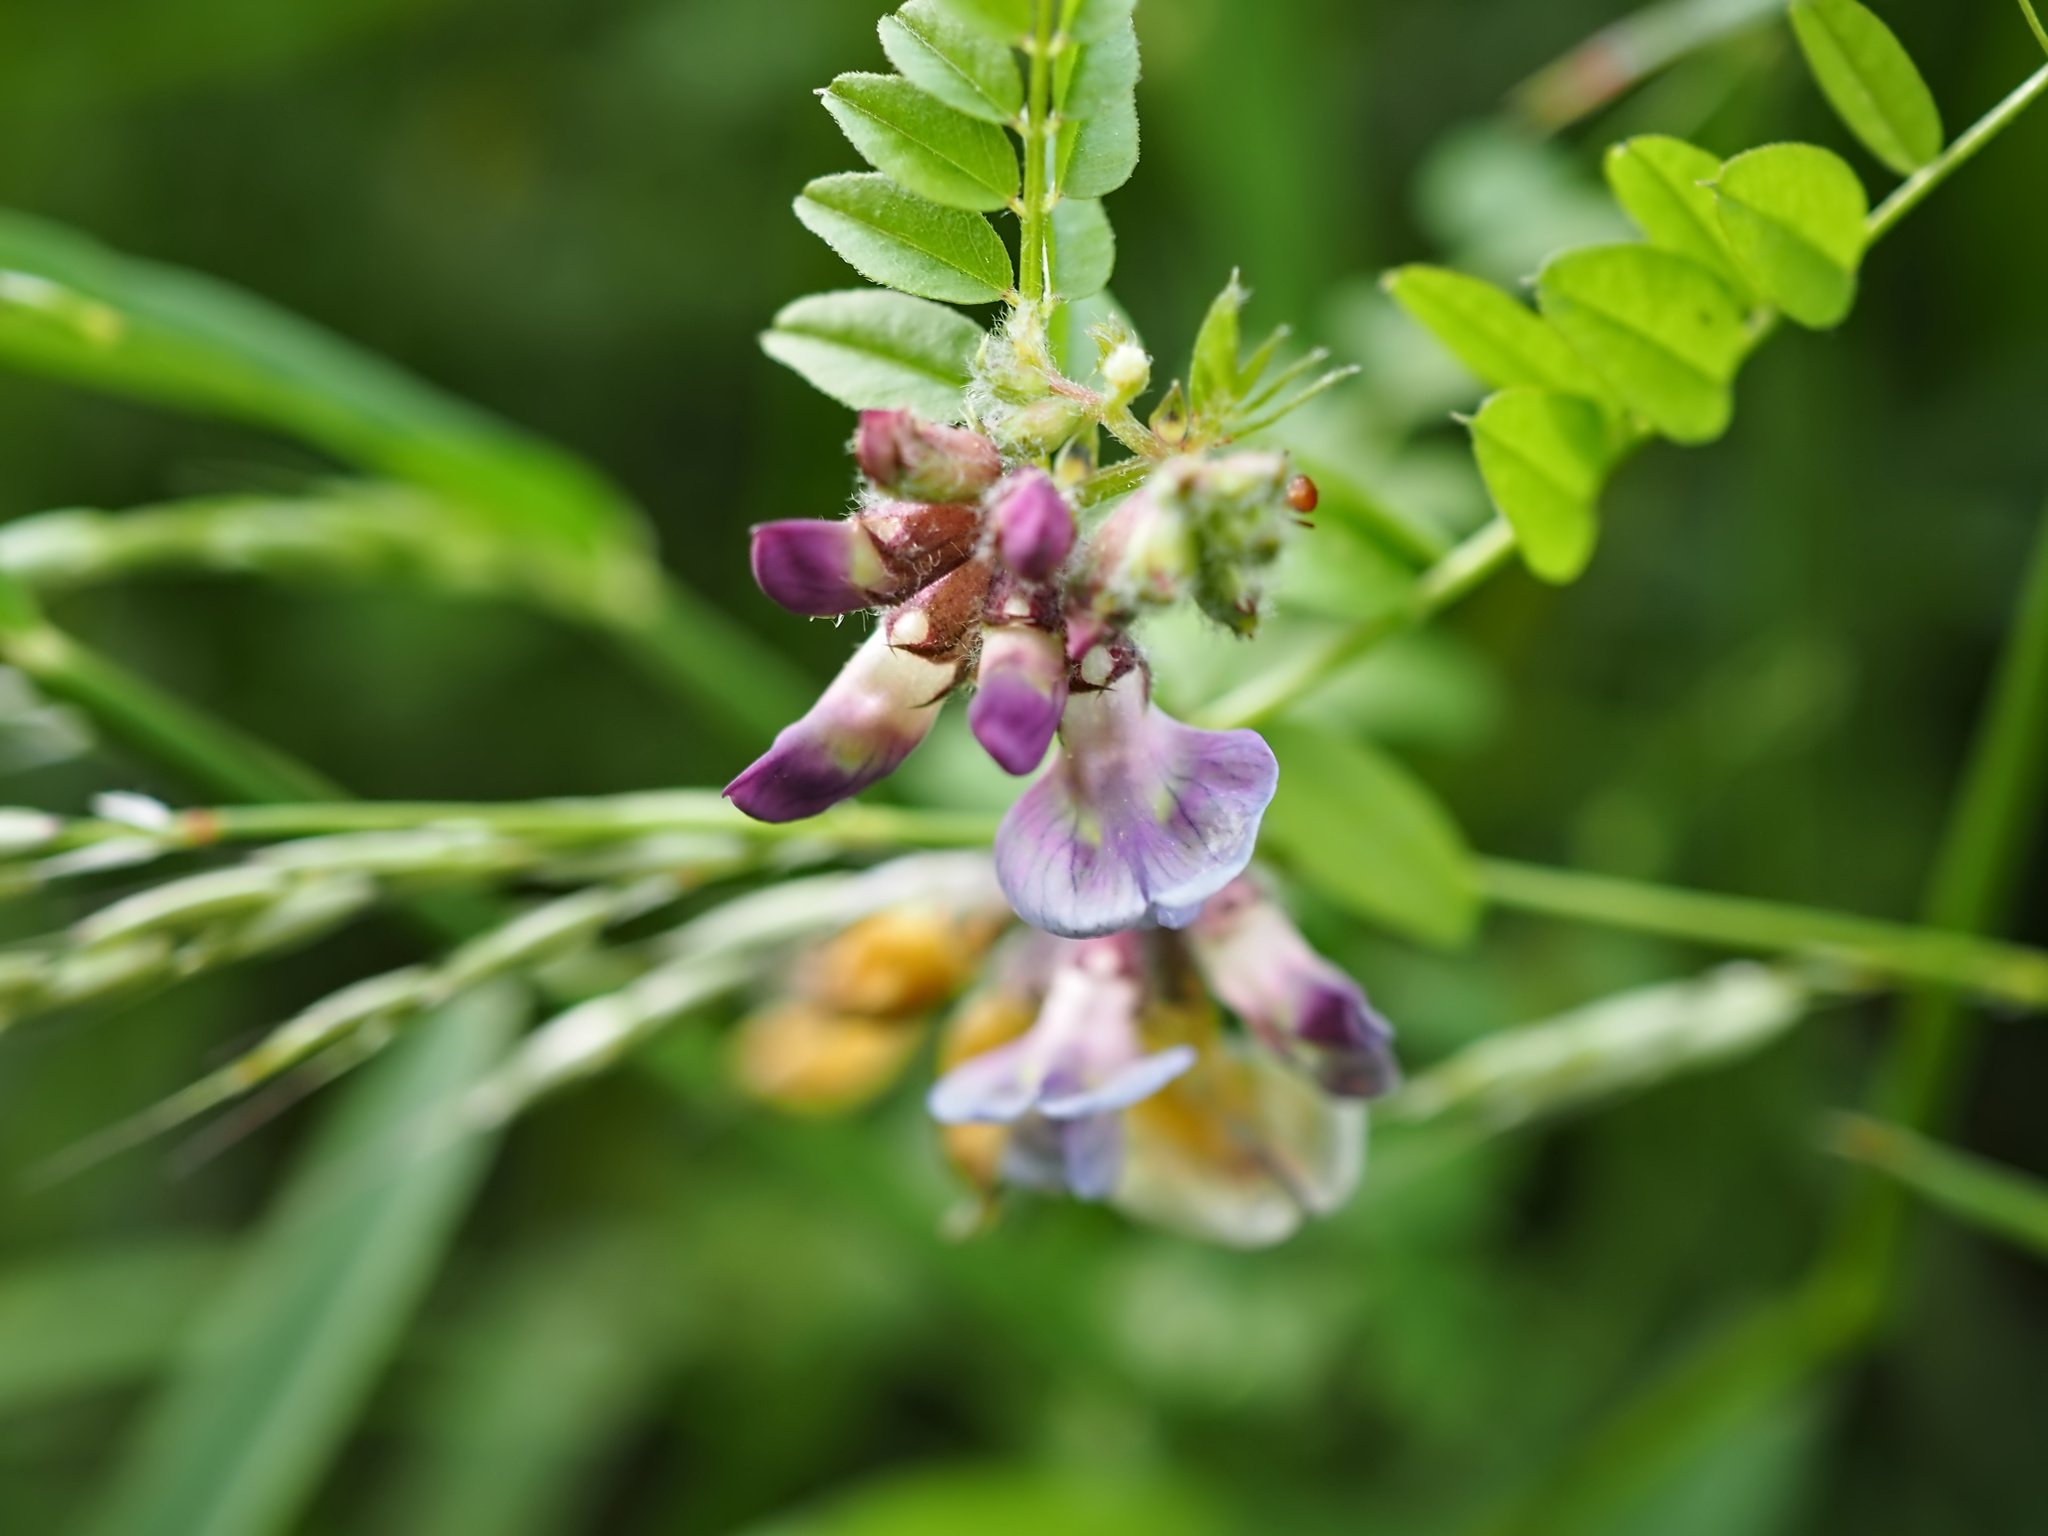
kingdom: Plantae
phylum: Tracheophyta
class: Magnoliopsida
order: Fabales
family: Fabaceae
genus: Vicia
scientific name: Vicia sepium
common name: Bush vetch
